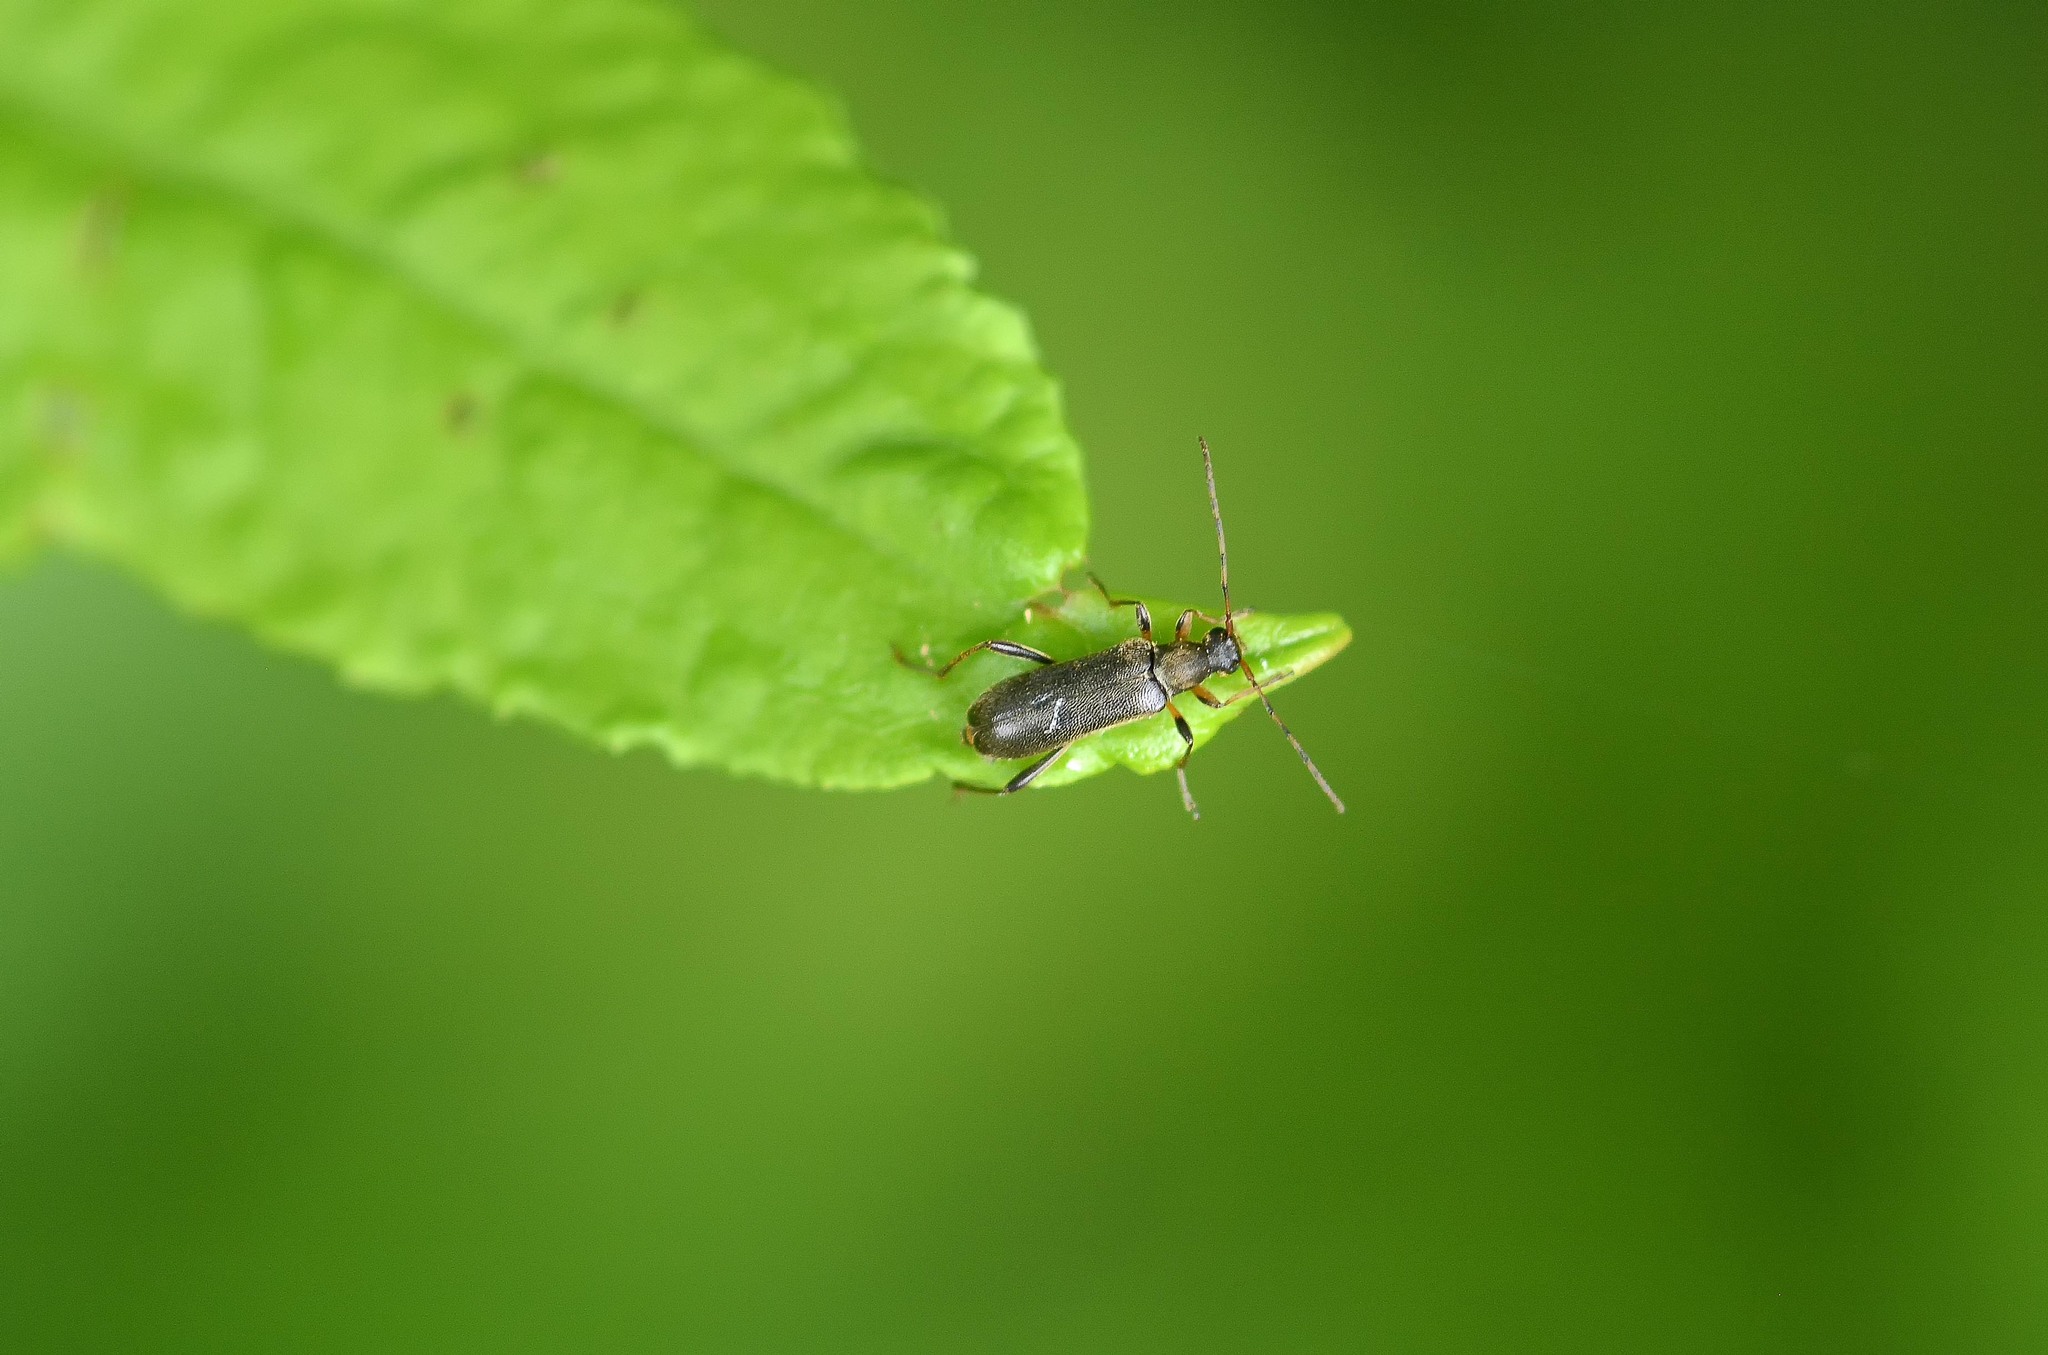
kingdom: Animalia
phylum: Arthropoda
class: Insecta
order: Coleoptera
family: Cerambycidae
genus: Grammoptera
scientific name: Grammoptera ruficornis
